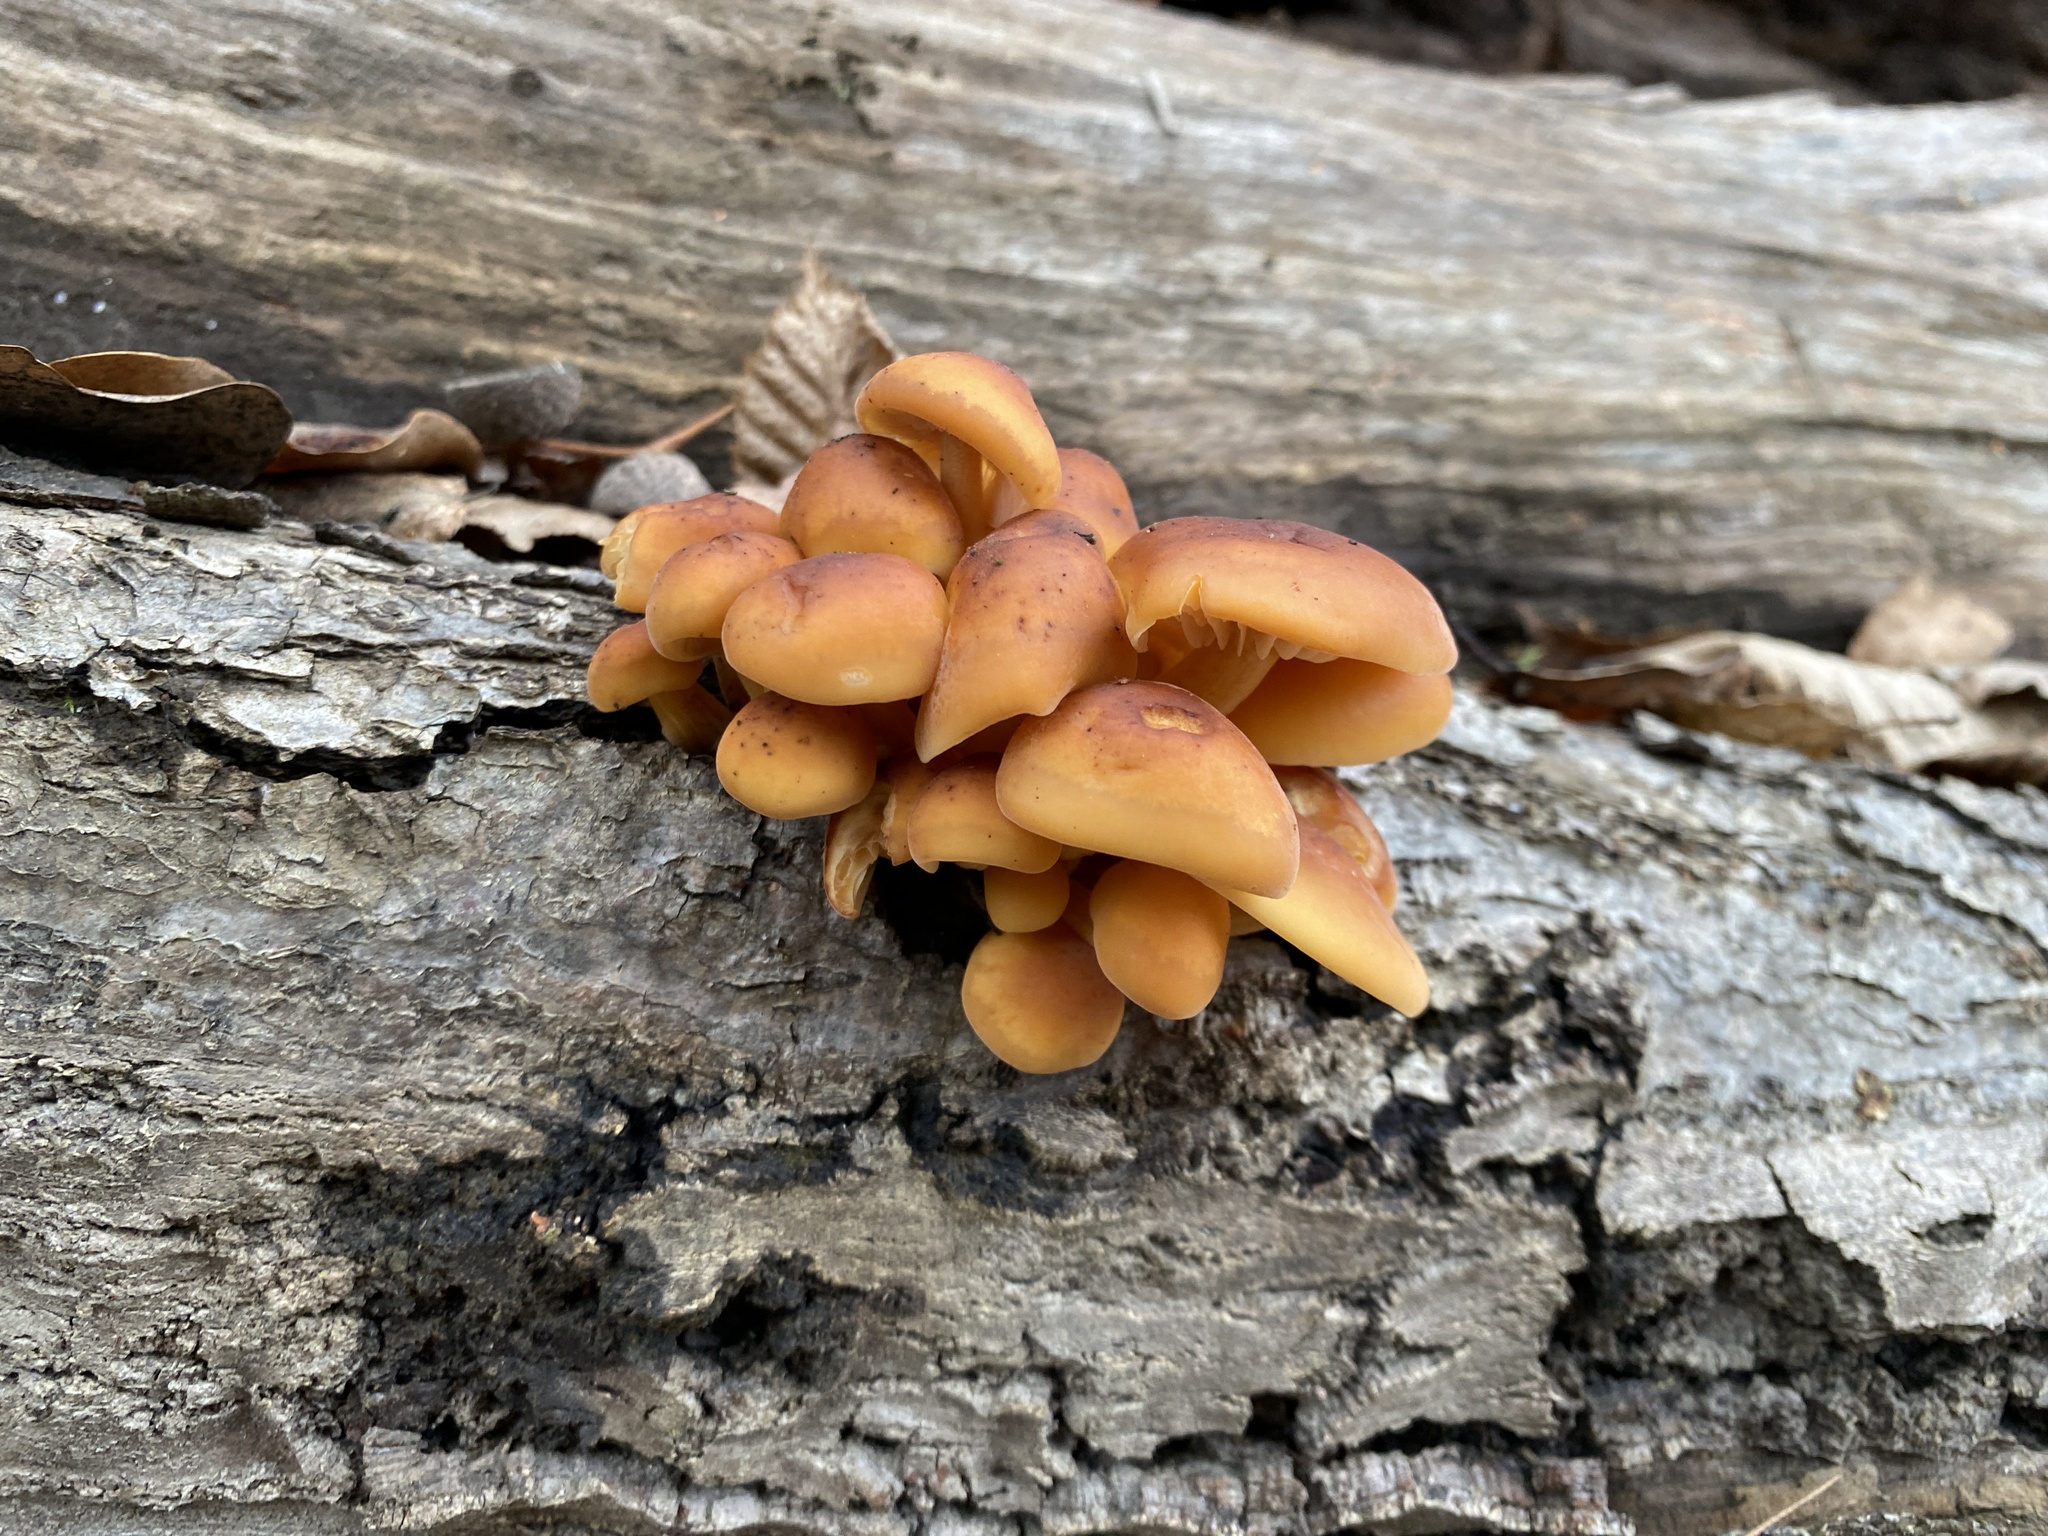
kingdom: Fungi
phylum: Basidiomycota
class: Agaricomycetes
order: Agaricales
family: Physalacriaceae
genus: Flammulina
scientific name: Flammulina
